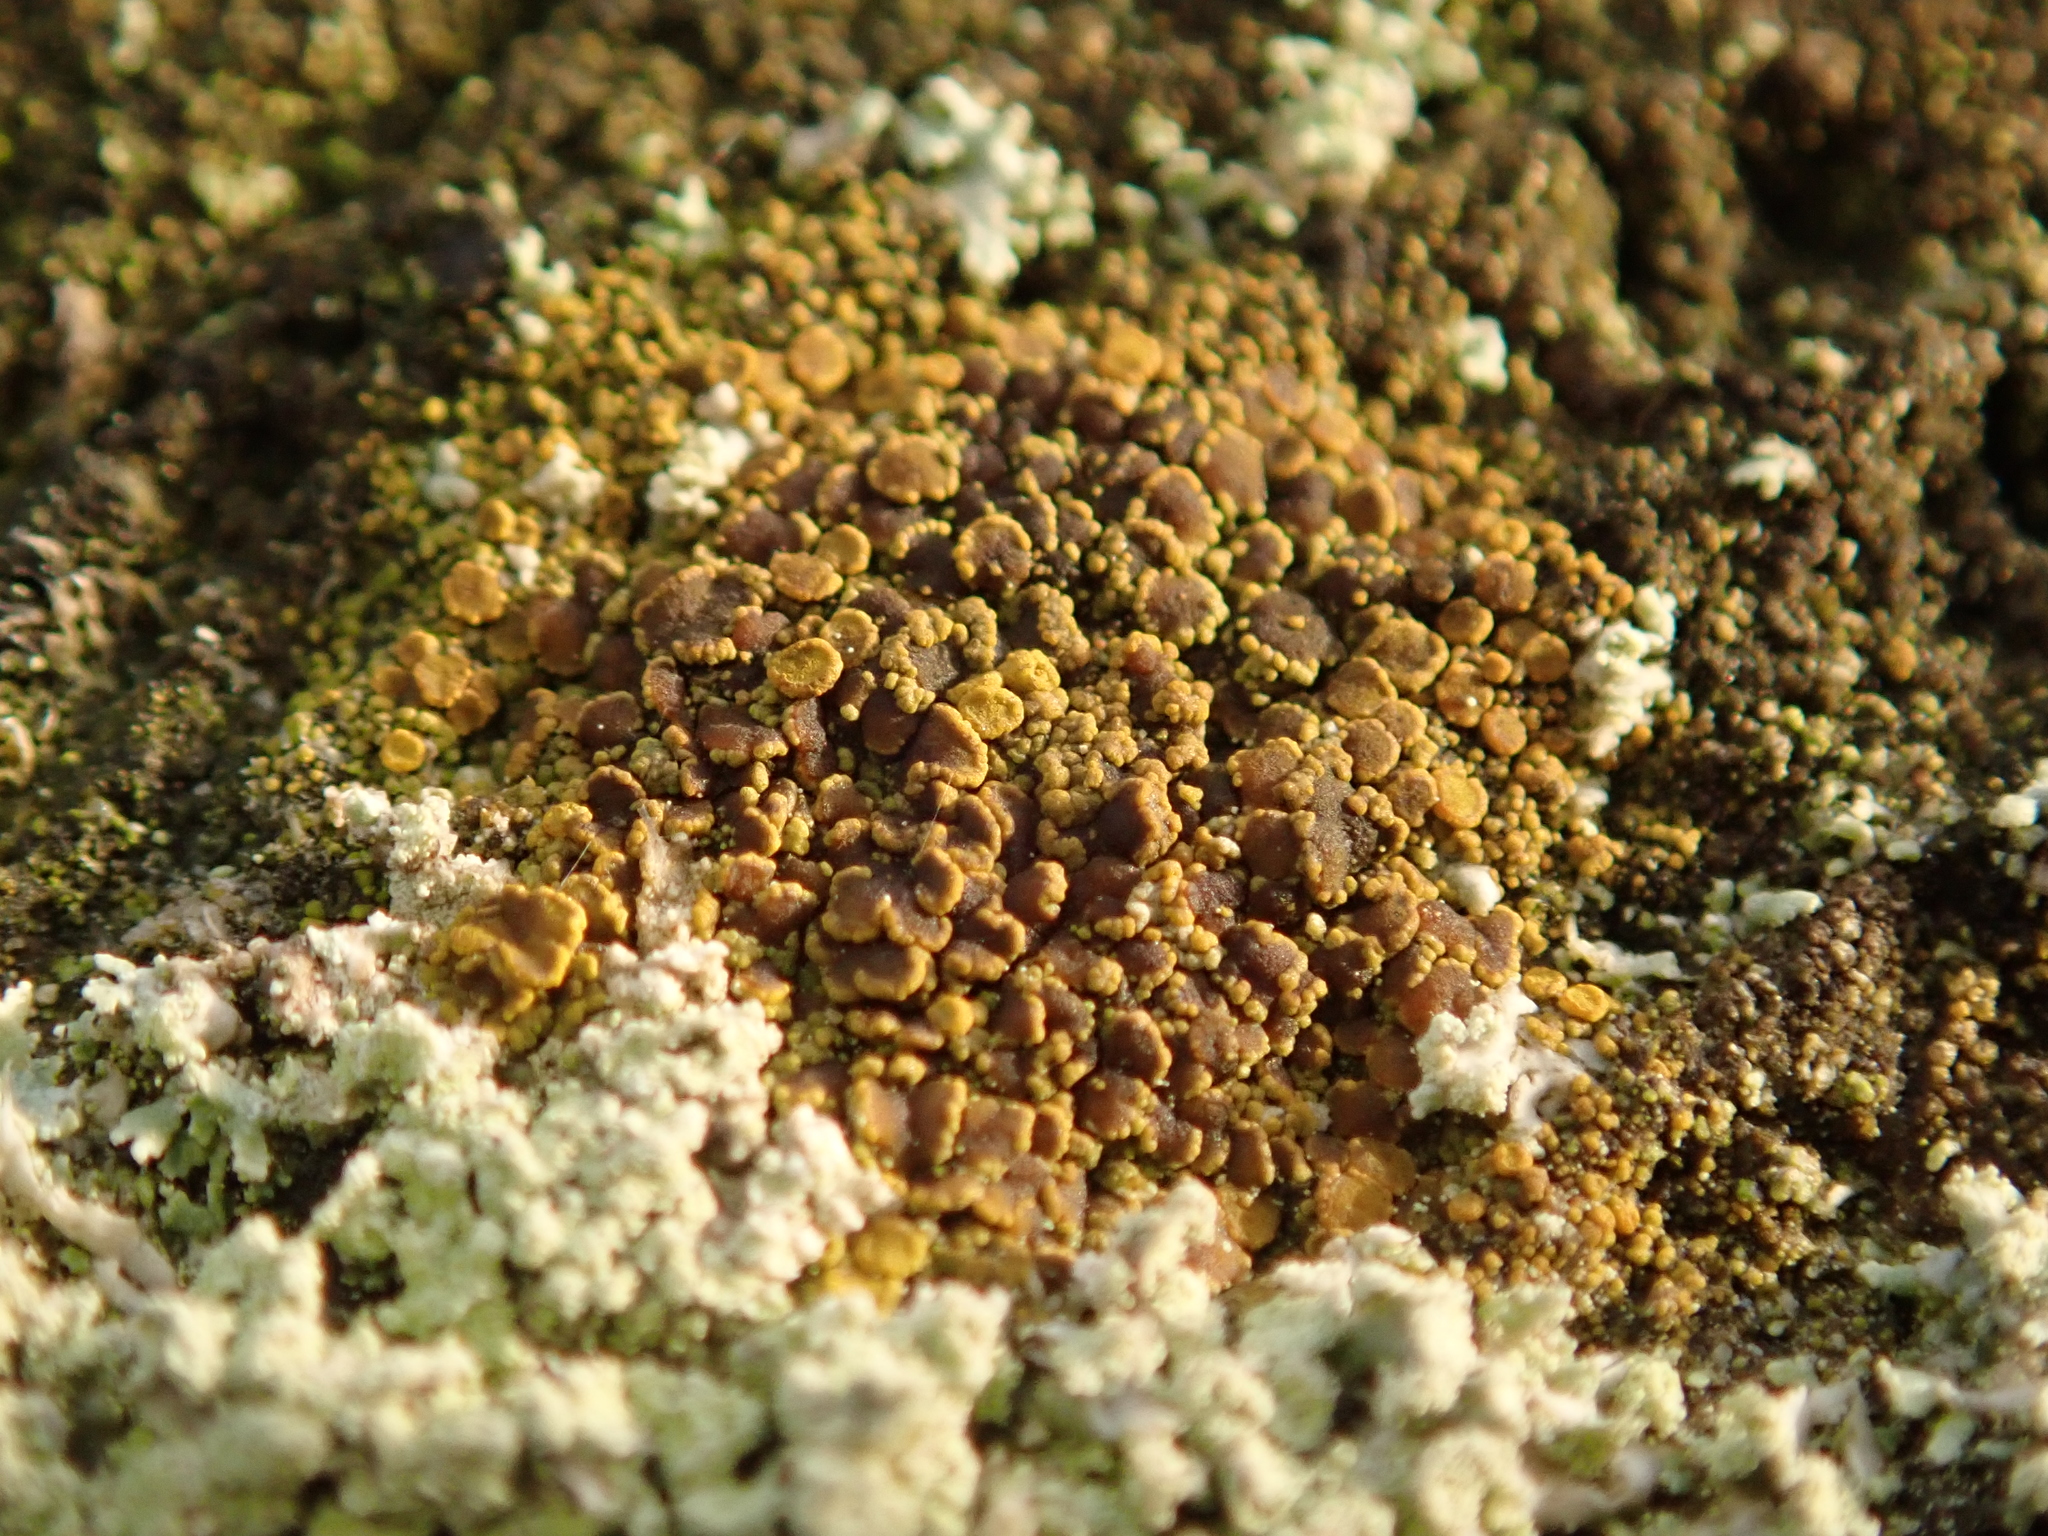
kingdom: Fungi
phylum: Ascomycota
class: Candelariomycetes
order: Candelariales
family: Candelariaceae
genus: Candelariella
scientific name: Candelariella vitellina
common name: Common goldspeck
